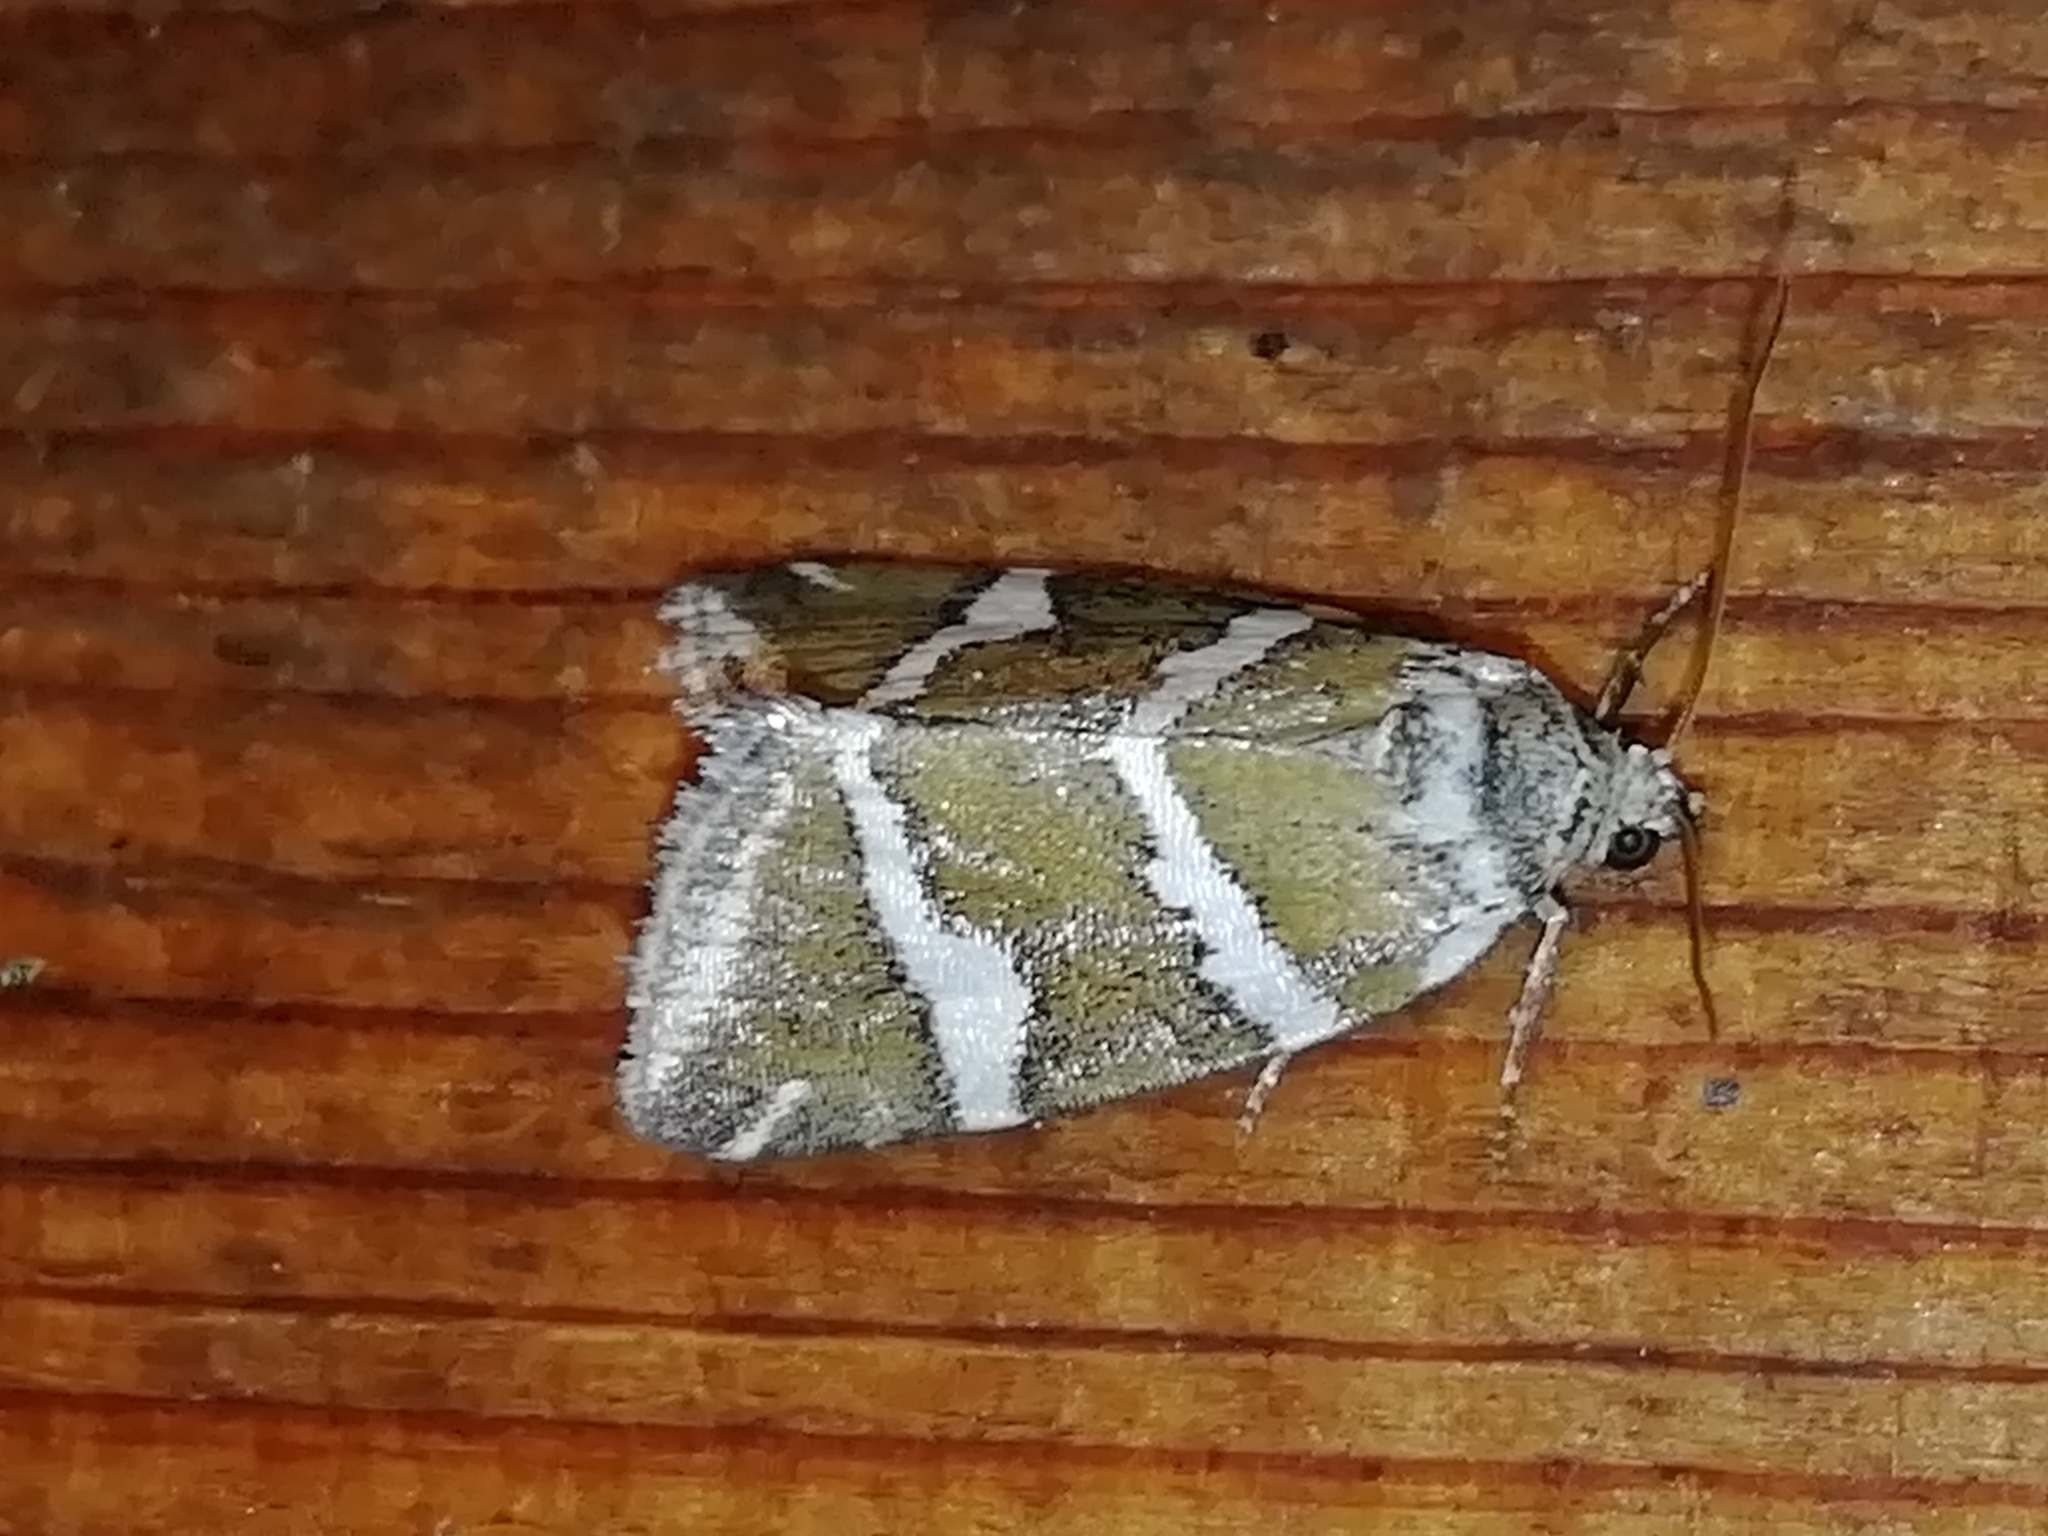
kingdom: Animalia
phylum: Arthropoda
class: Insecta
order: Lepidoptera
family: Noctuidae
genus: Deltote
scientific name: Deltote bankiana
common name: Silver barred
